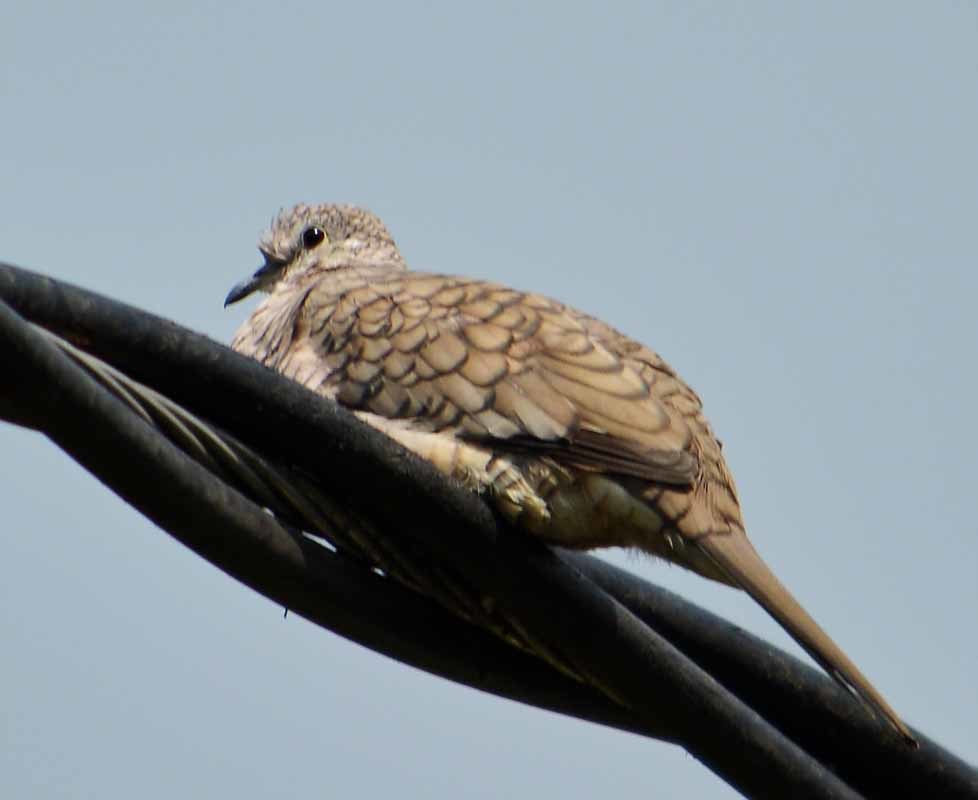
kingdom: Animalia
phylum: Chordata
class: Aves
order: Columbiformes
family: Columbidae
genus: Columbina
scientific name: Columbina inca
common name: Inca dove
